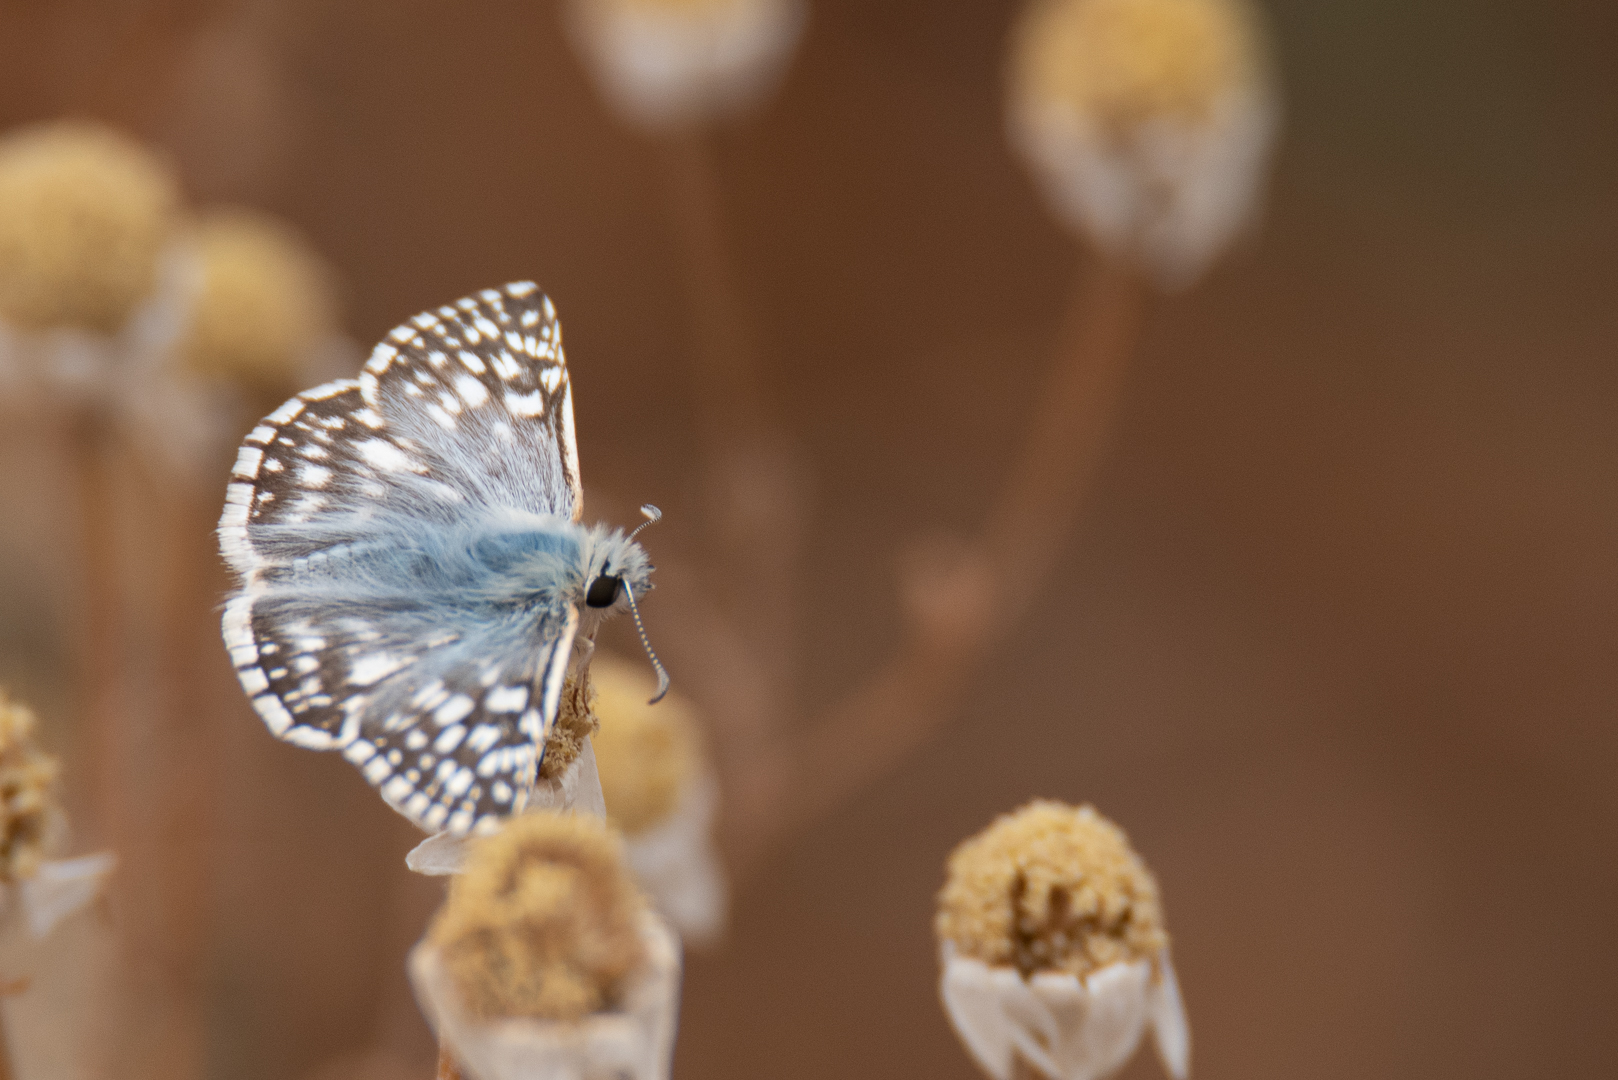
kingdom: Animalia
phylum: Arthropoda
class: Insecta
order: Lepidoptera
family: Hesperiidae
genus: Heliopetes
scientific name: Heliopetes americanus
